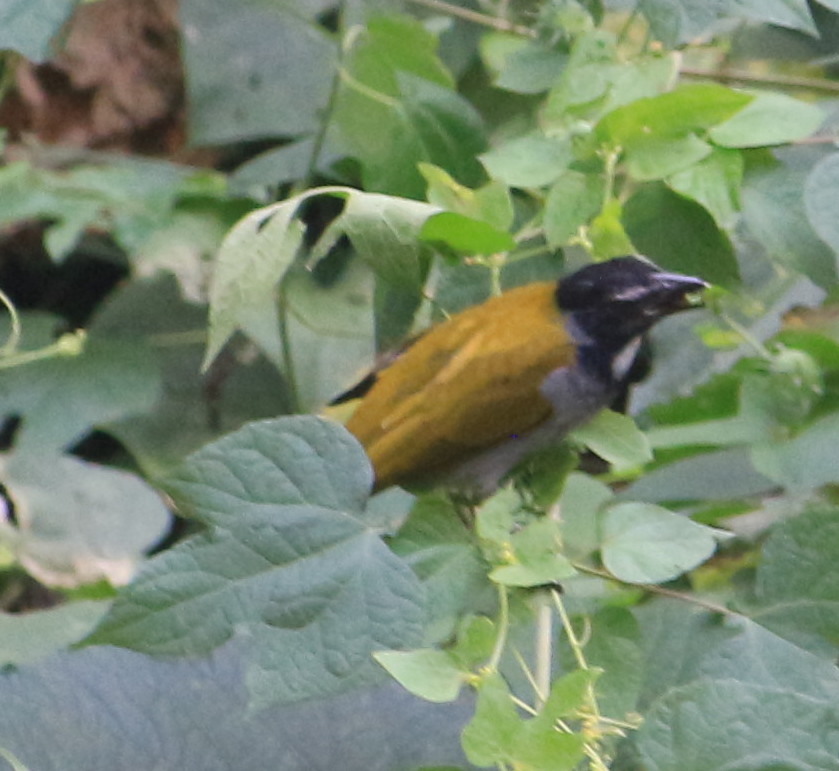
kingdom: Animalia
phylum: Chordata
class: Aves
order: Passeriformes
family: Thraupidae
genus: Saltator
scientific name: Saltator atriceps
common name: Black-headed saltator
